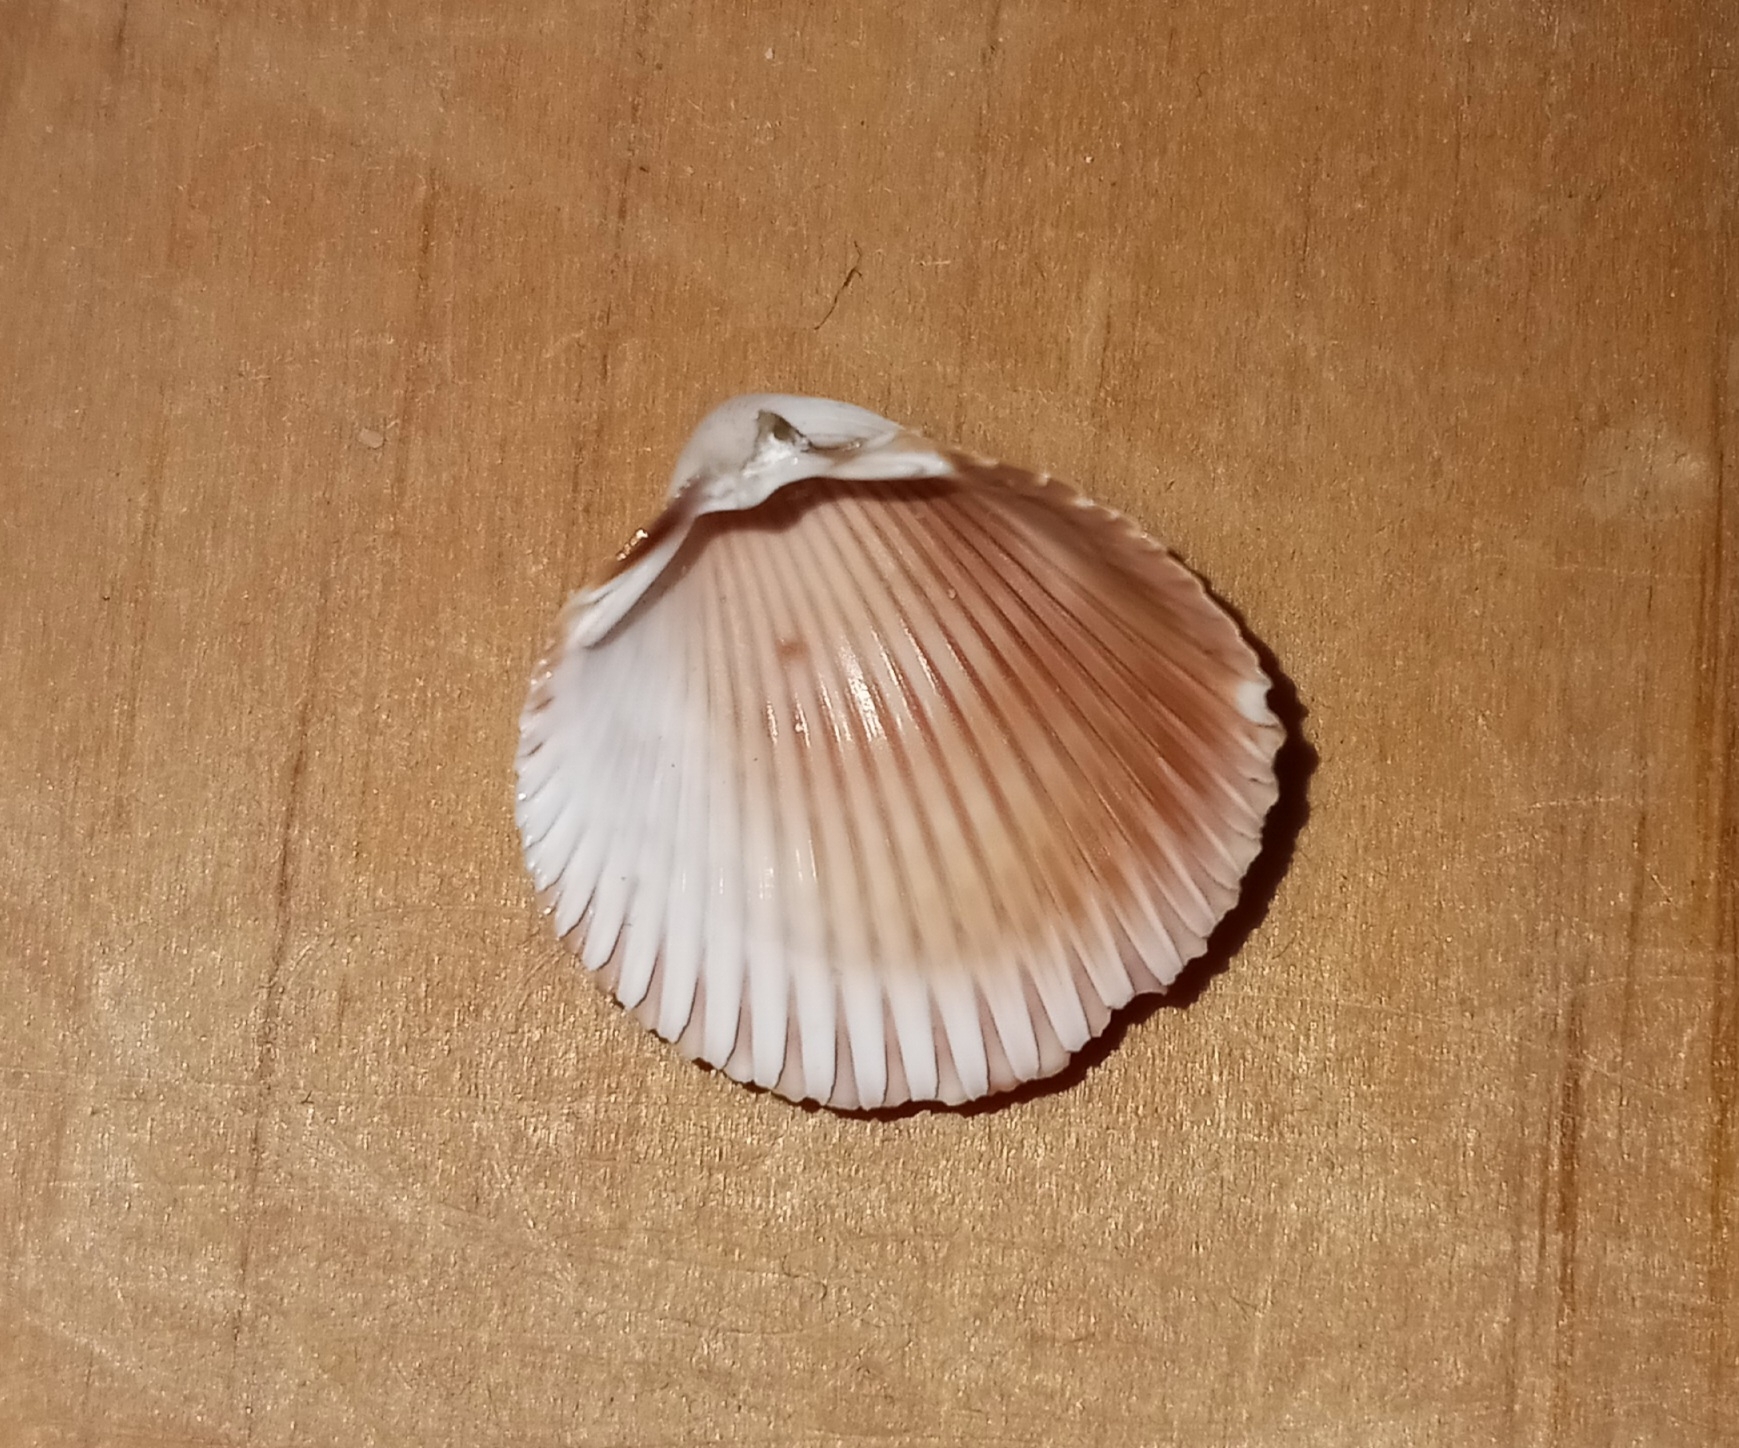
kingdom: Animalia
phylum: Mollusca
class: Bivalvia
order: Cardiida
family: Cardiidae
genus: Dinocardium
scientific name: Dinocardium robustum
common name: Atlantic giant cockle
